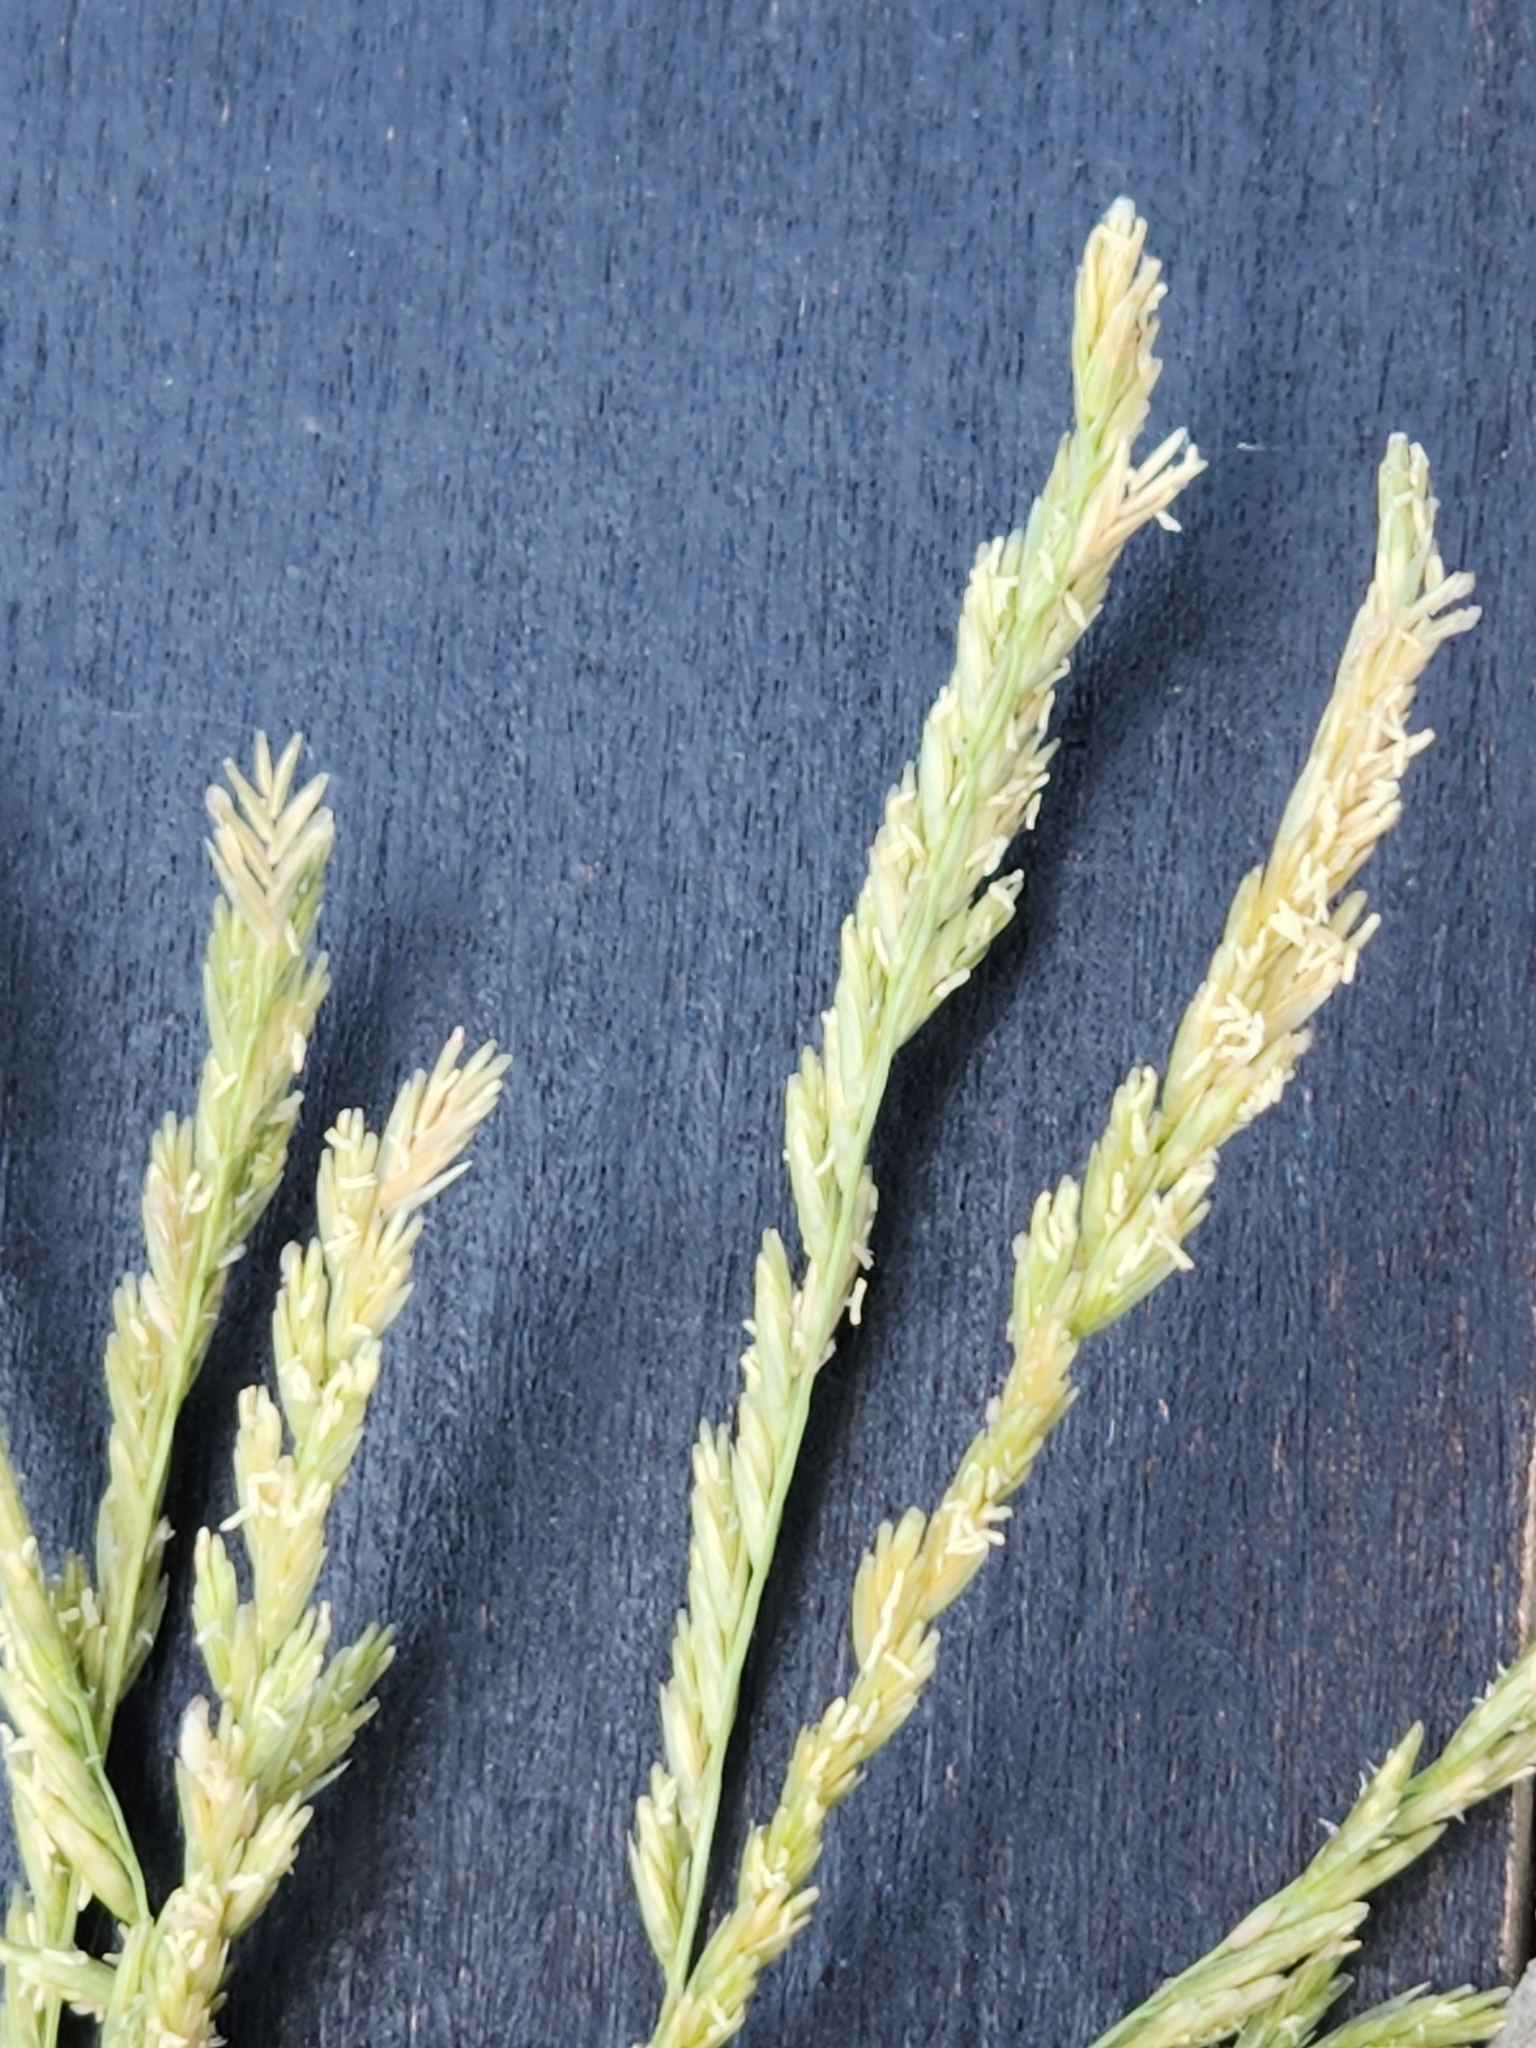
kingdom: Plantae
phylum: Tracheophyta
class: Liliopsida
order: Poales
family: Poaceae
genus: Disakisperma
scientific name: Disakisperma dubium
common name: Green sprangletop
